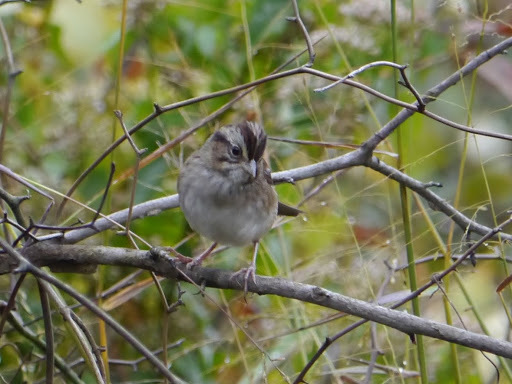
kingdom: Animalia
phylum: Chordata
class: Aves
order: Passeriformes
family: Passerellidae
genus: Melospiza
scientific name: Melospiza georgiana
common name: Swamp sparrow
